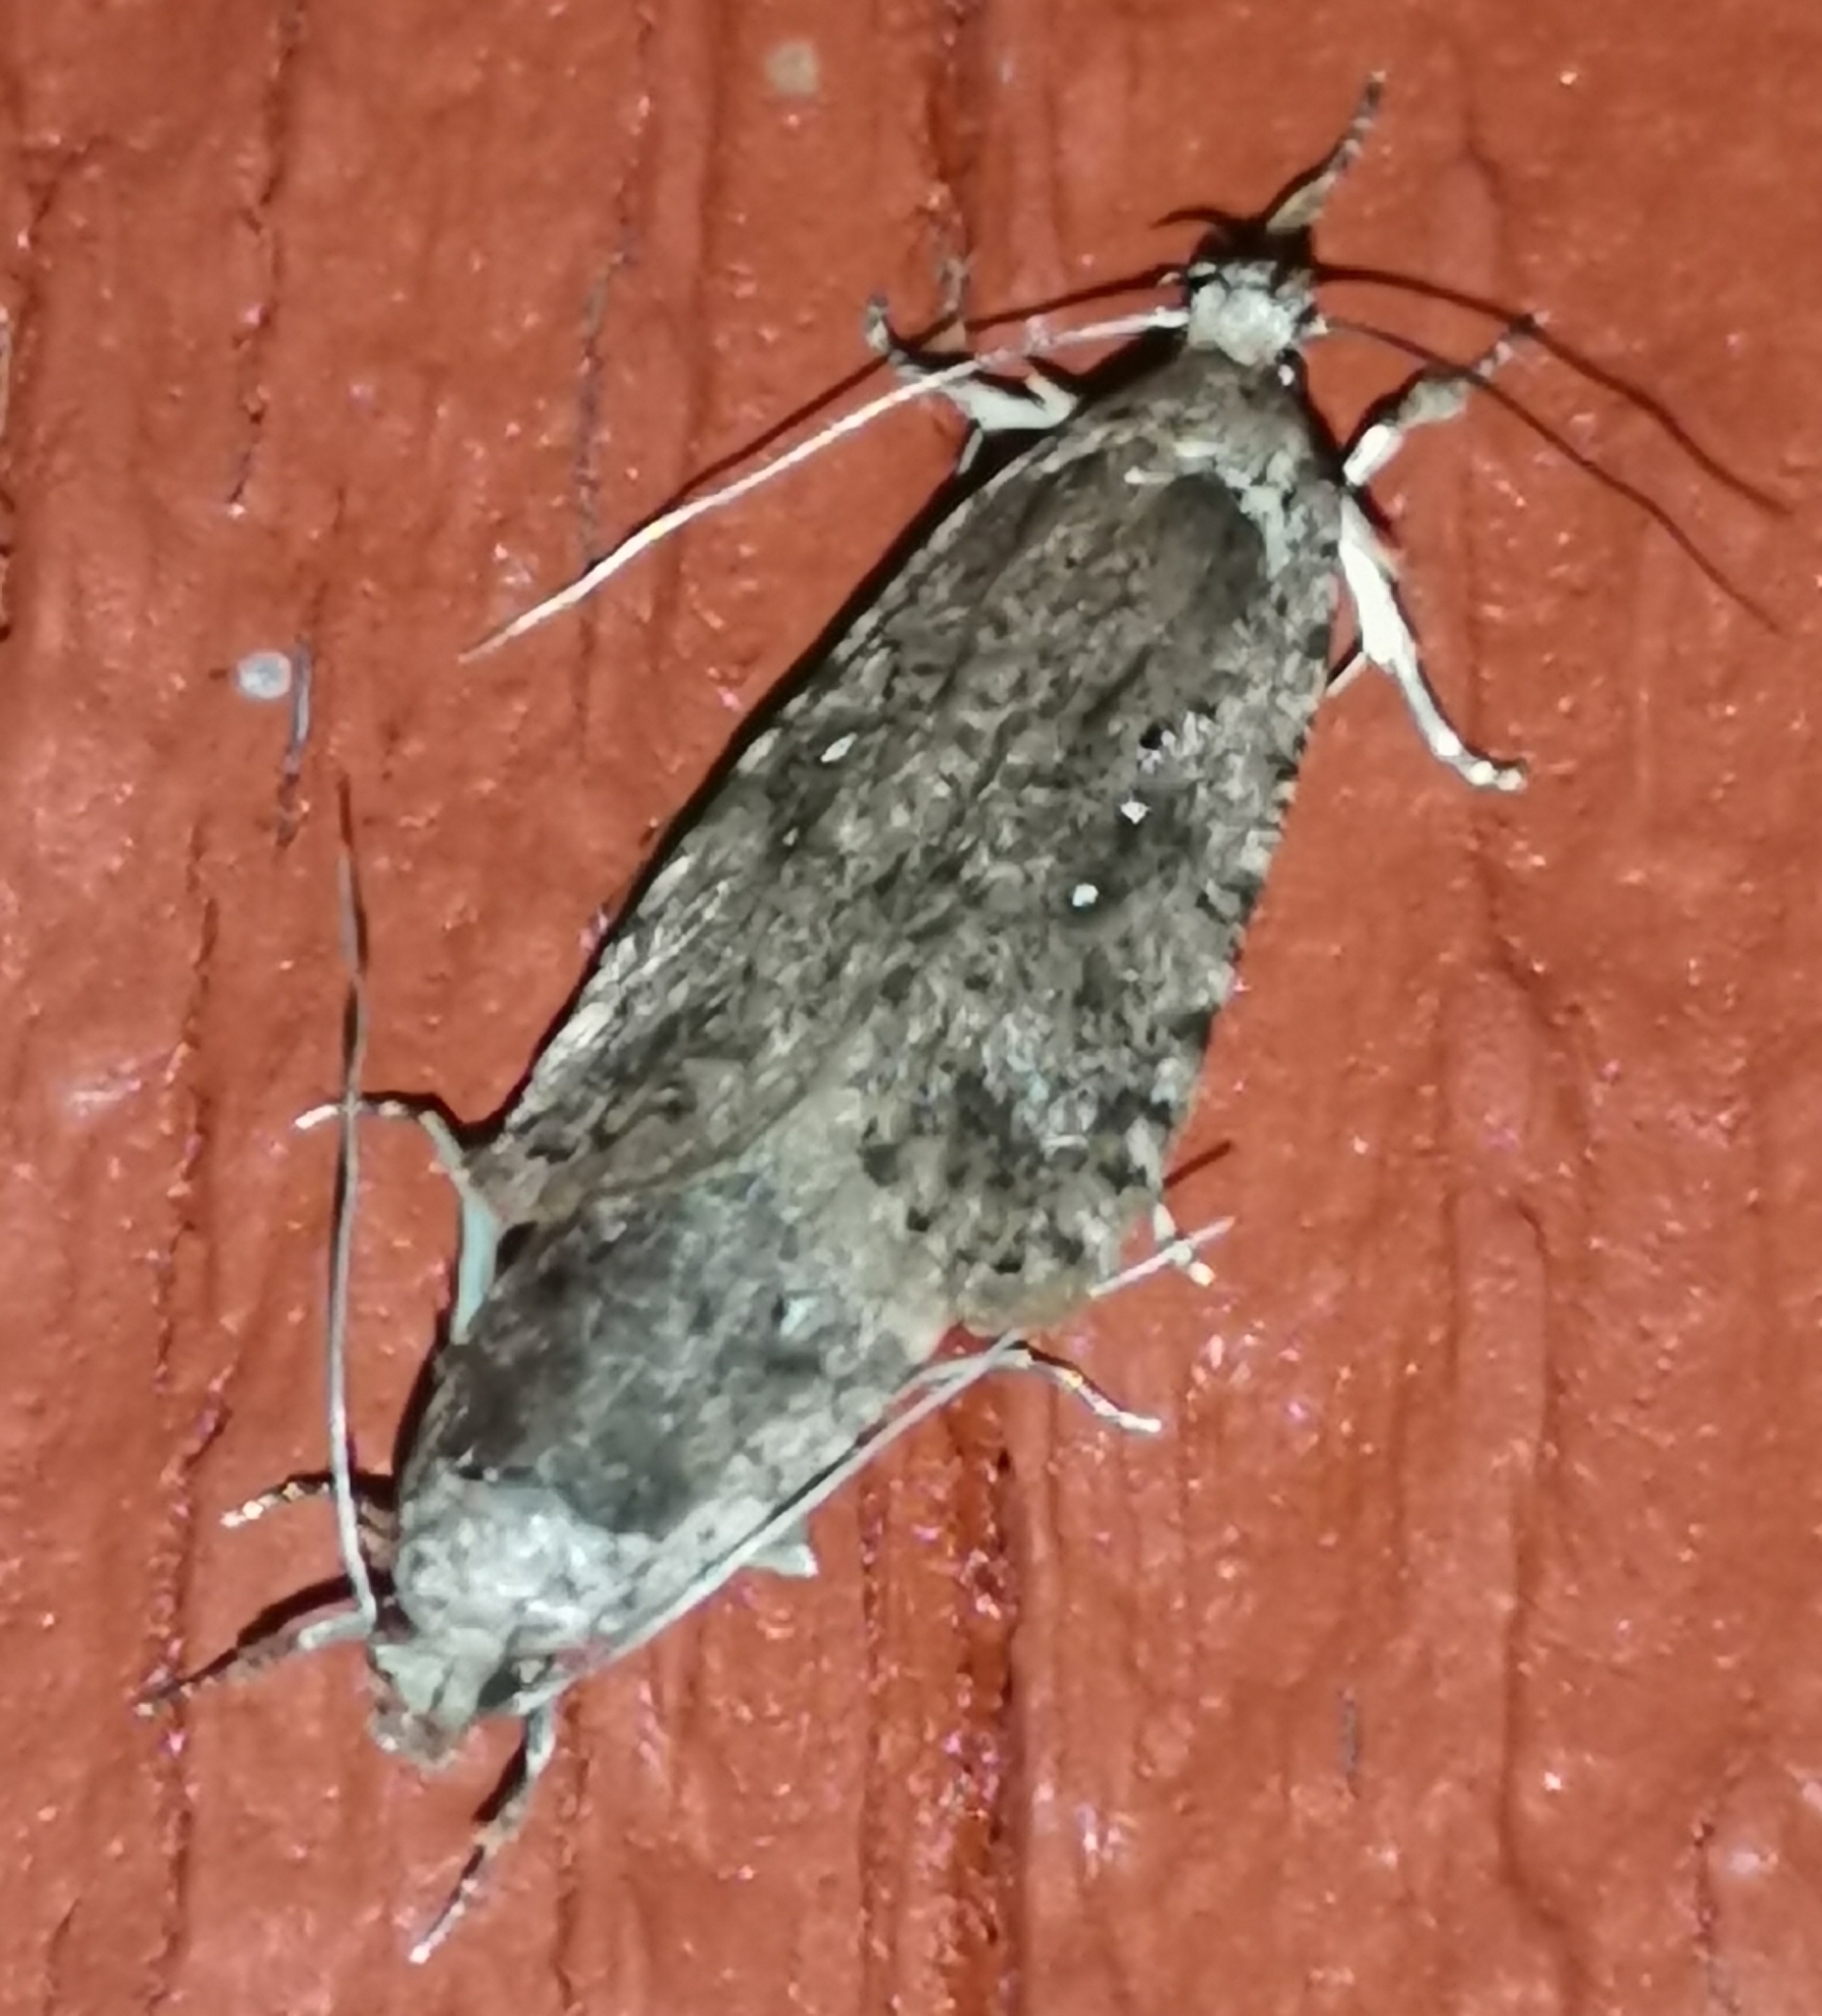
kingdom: Animalia
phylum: Arthropoda
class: Insecta
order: Lepidoptera
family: Depressariidae
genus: Agonopterix
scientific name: Agonopterix heracliana
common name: Common flat-body
